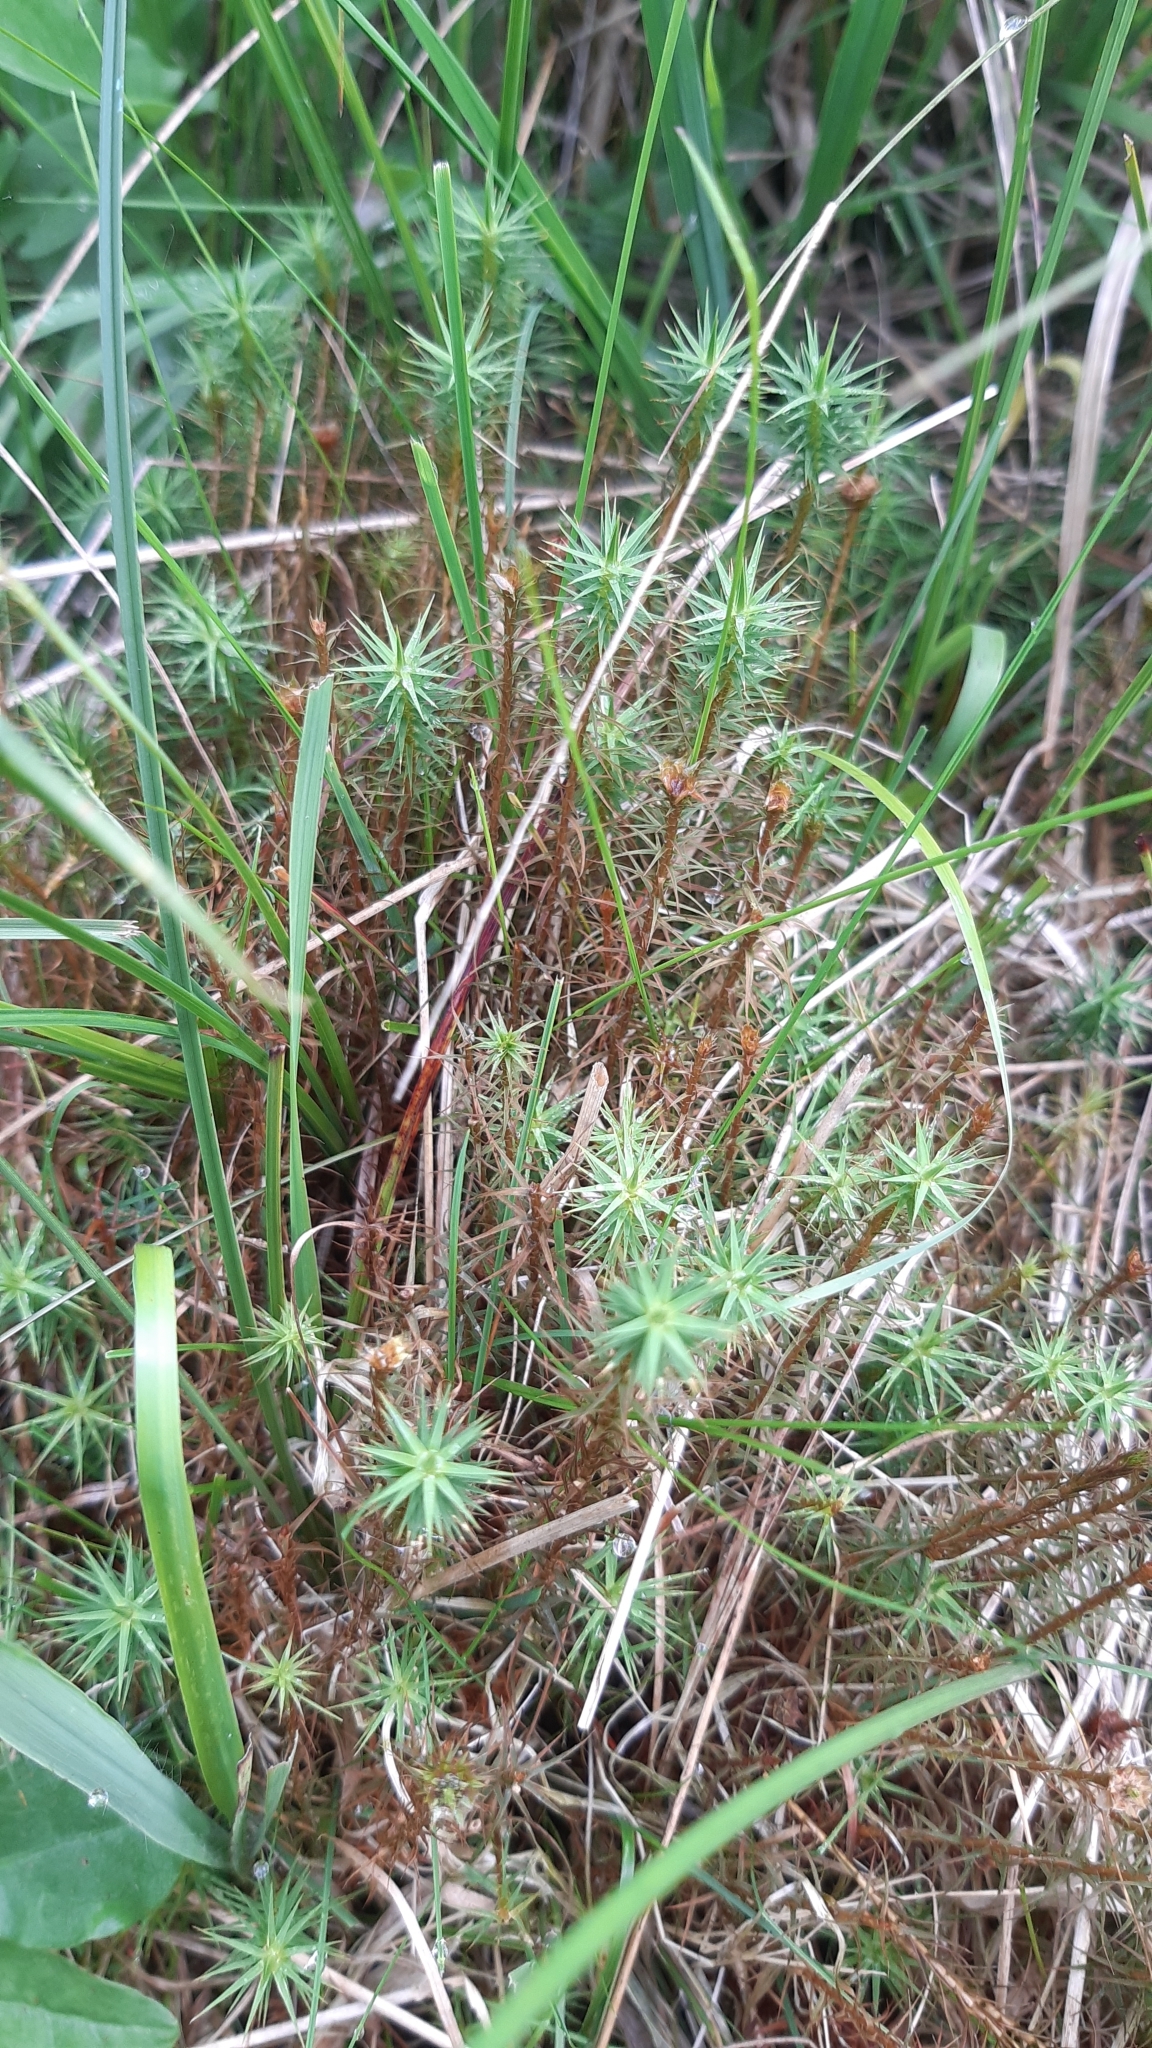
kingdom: Plantae
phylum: Bryophyta
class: Polytrichopsida
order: Polytrichales
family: Polytrichaceae
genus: Polytrichum
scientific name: Polytrichum commune
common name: Common haircap
